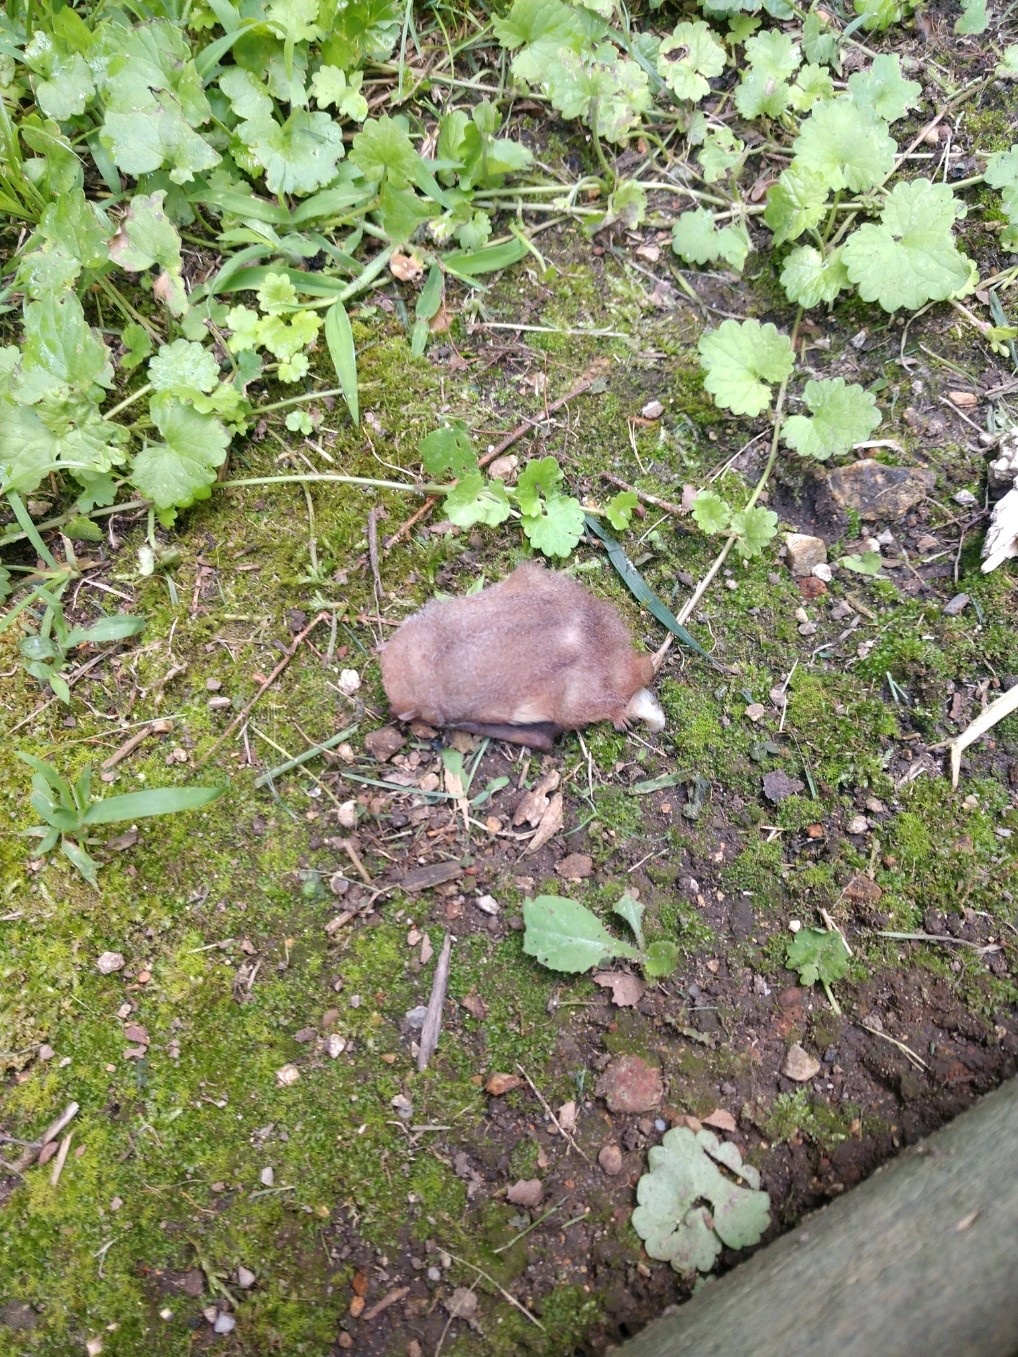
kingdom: Animalia
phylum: Chordata
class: Mammalia
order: Chiroptera
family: Vespertilionidae
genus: Lasiurus
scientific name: Lasiurus borealis
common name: Eastern red bat
